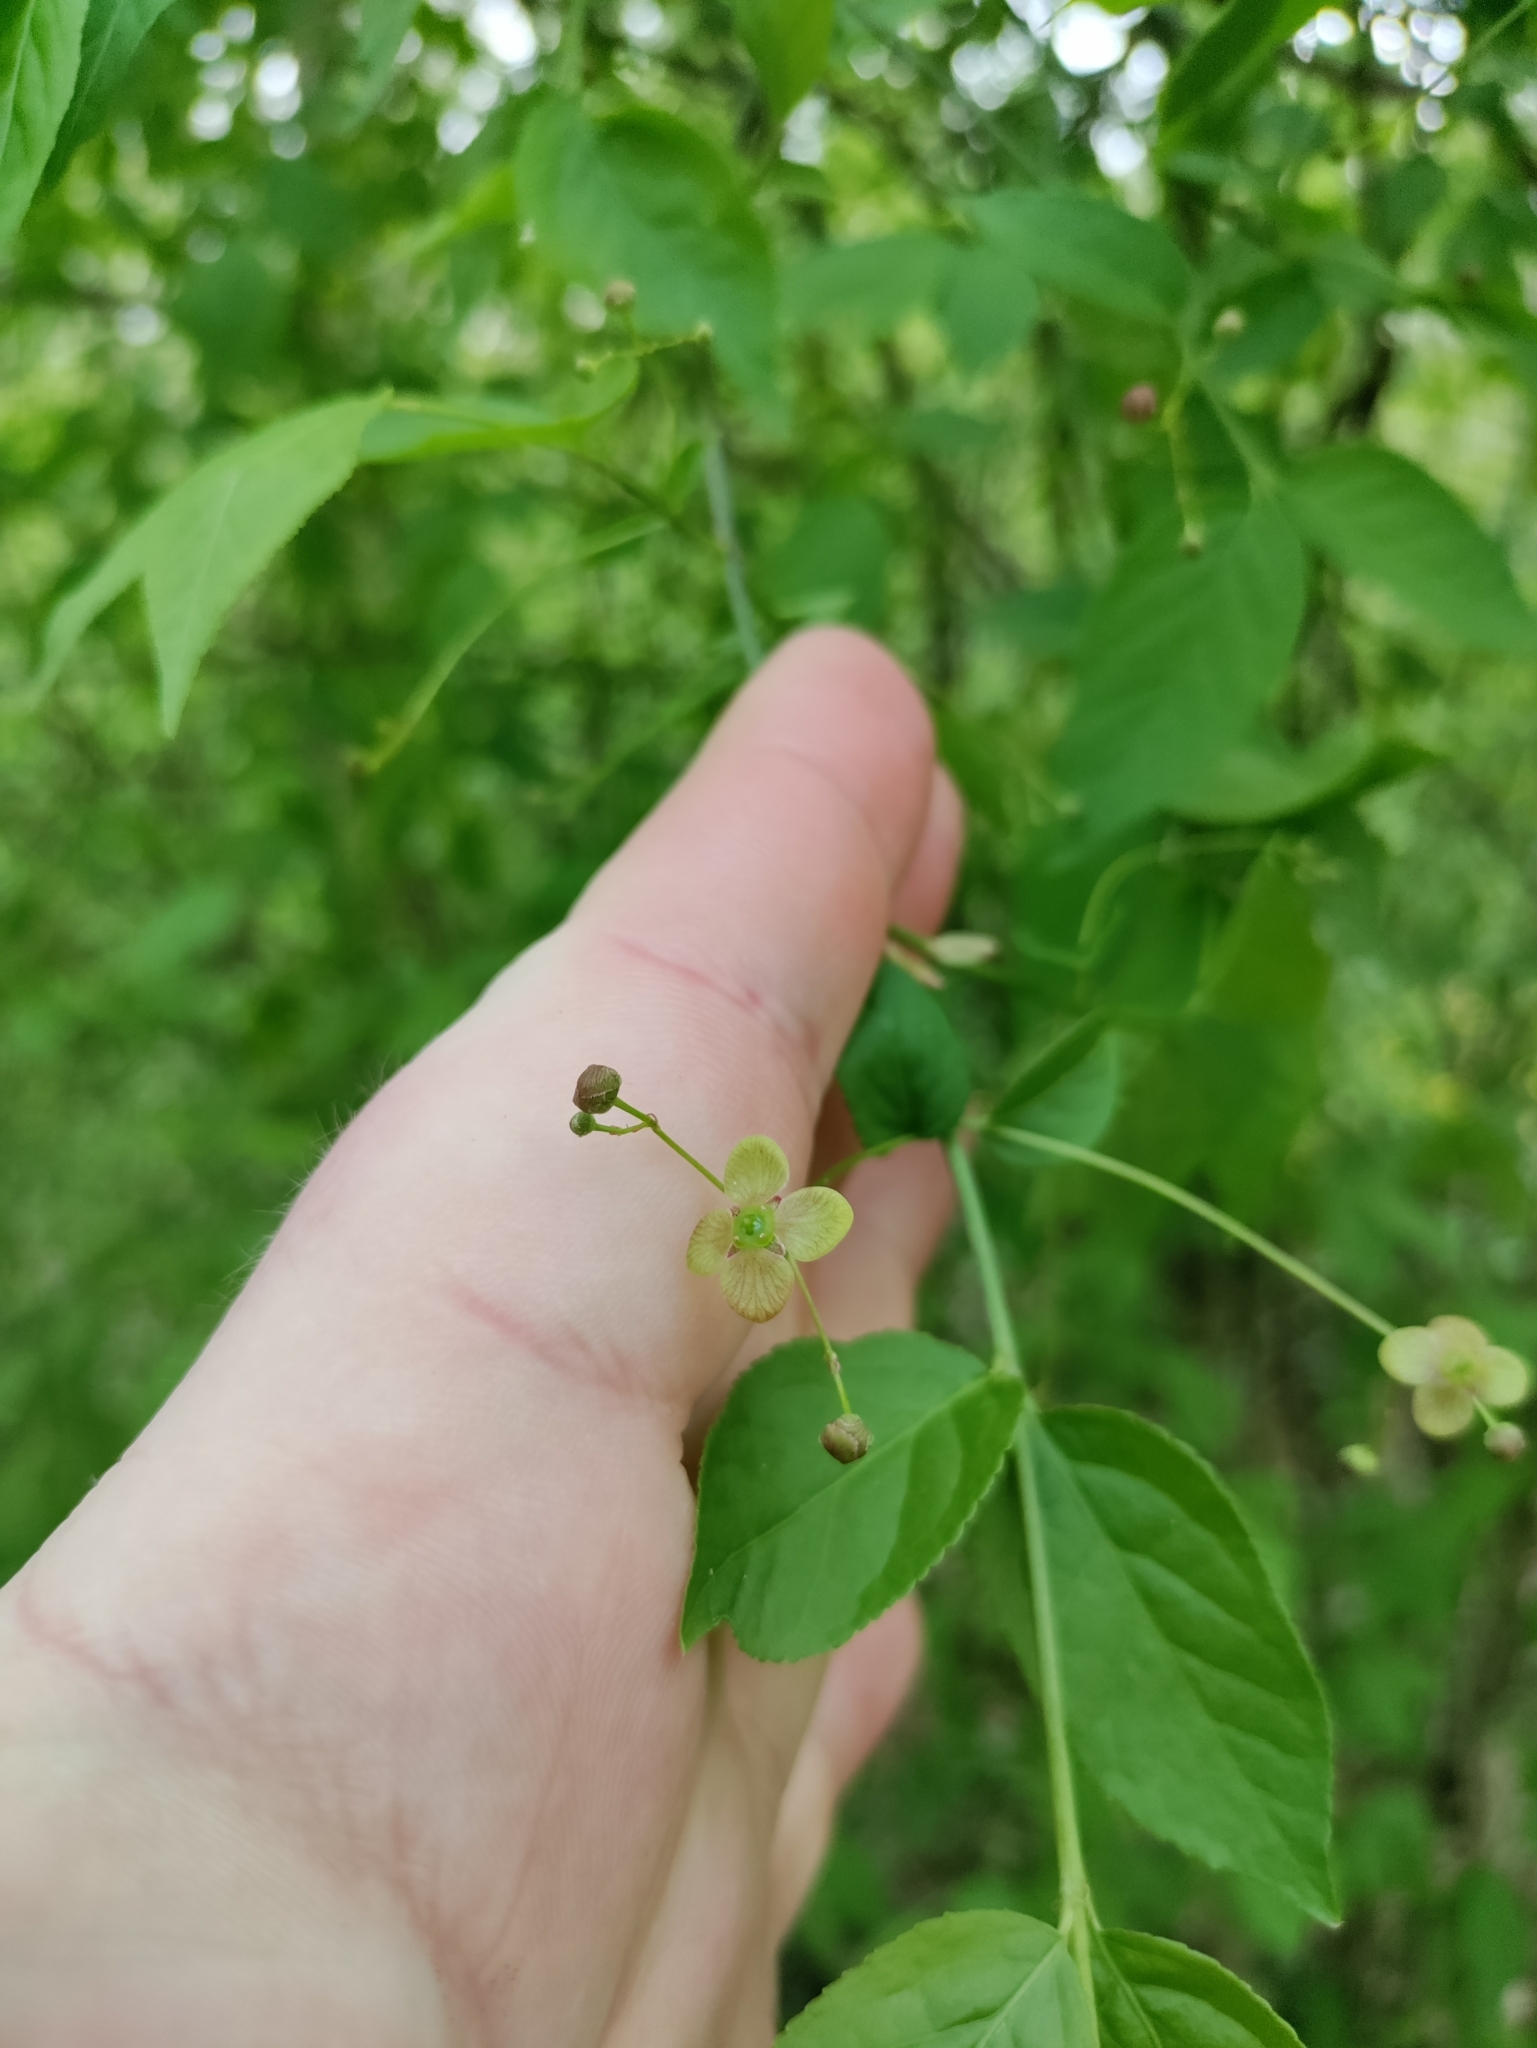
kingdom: Plantae
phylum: Tracheophyta
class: Magnoliopsida
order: Celastrales
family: Celastraceae
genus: Euonymus
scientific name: Euonymus verrucosus
